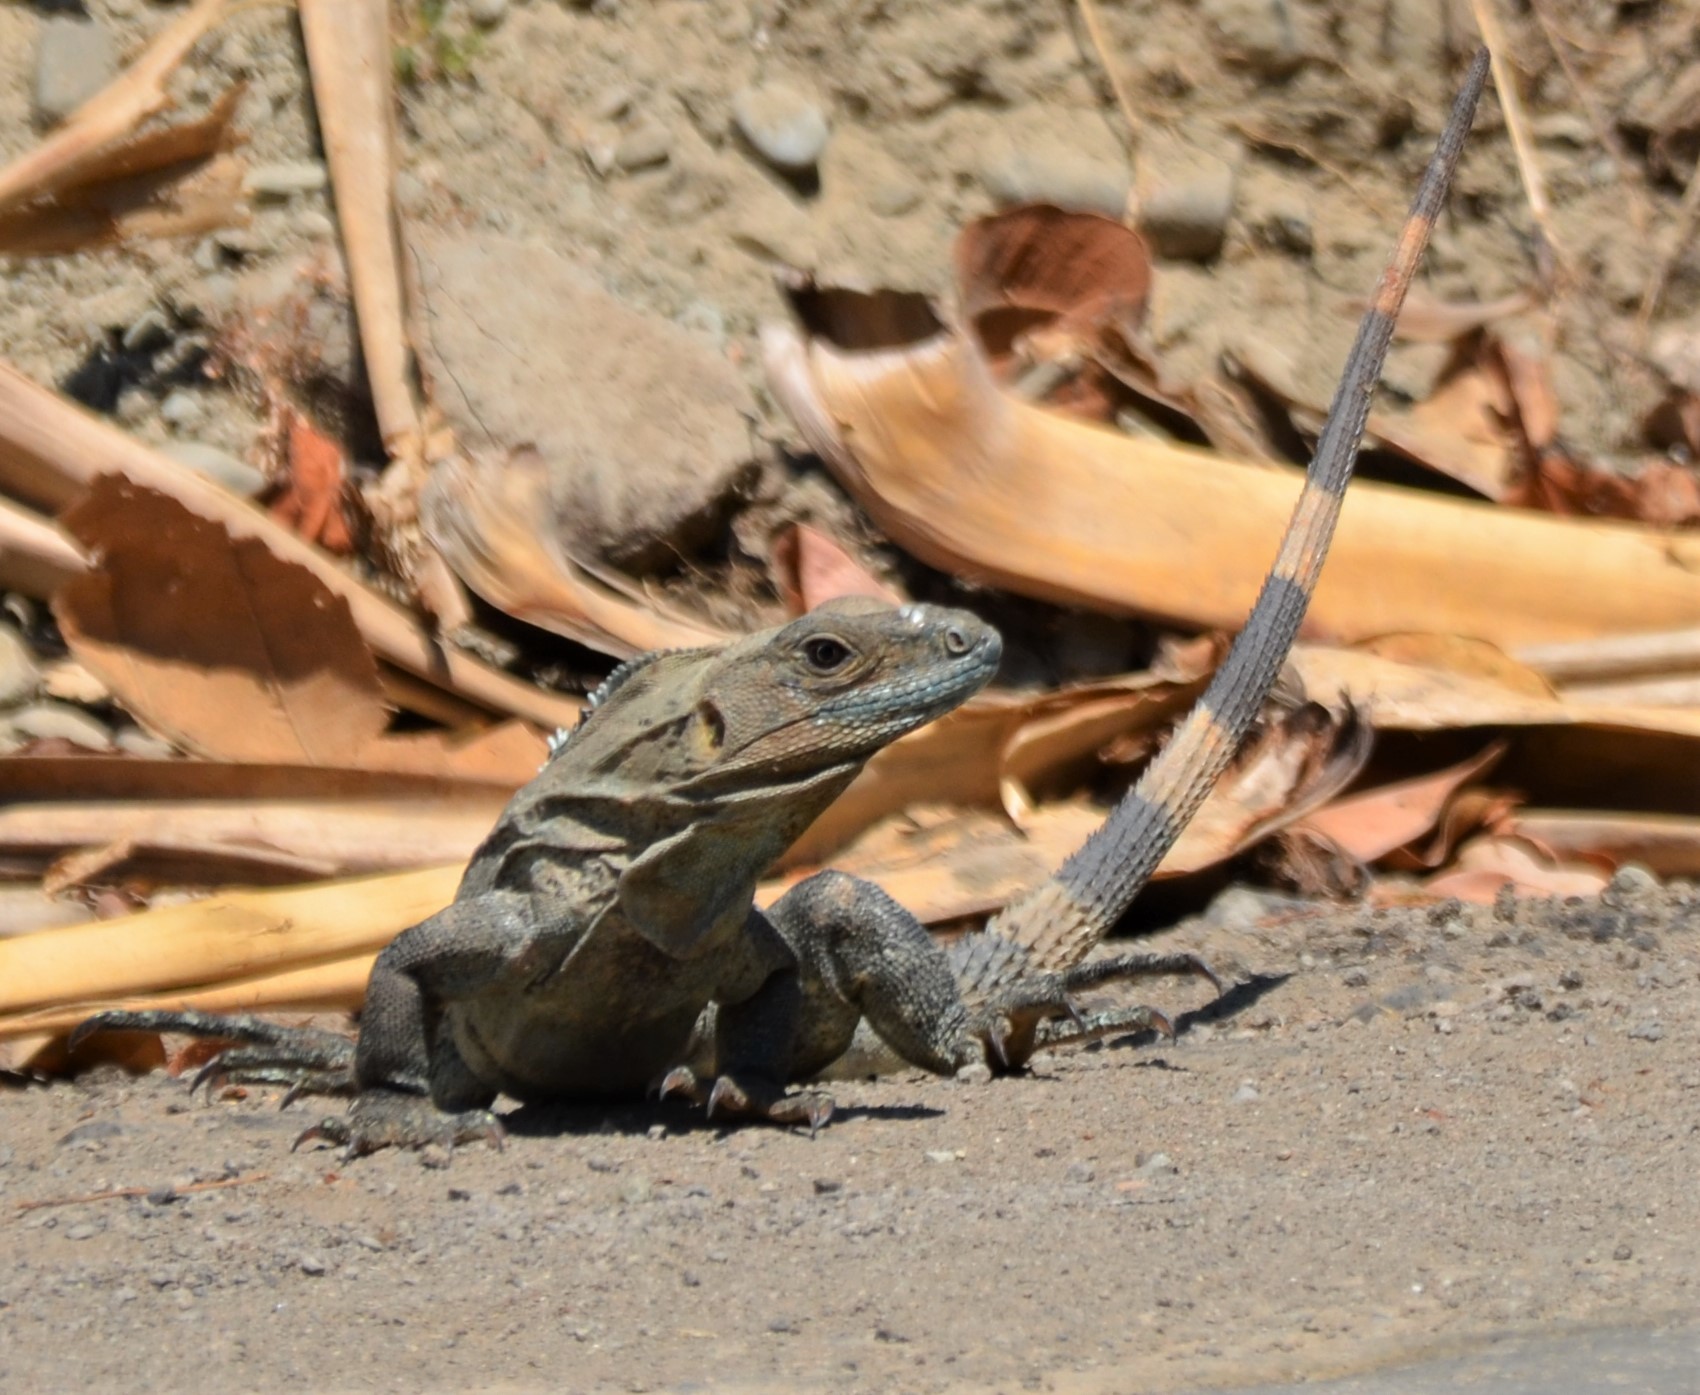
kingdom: Animalia
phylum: Chordata
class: Squamata
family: Iguanidae
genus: Ctenosaura
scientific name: Ctenosaura similis
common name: Black spiny-tailed iguana
